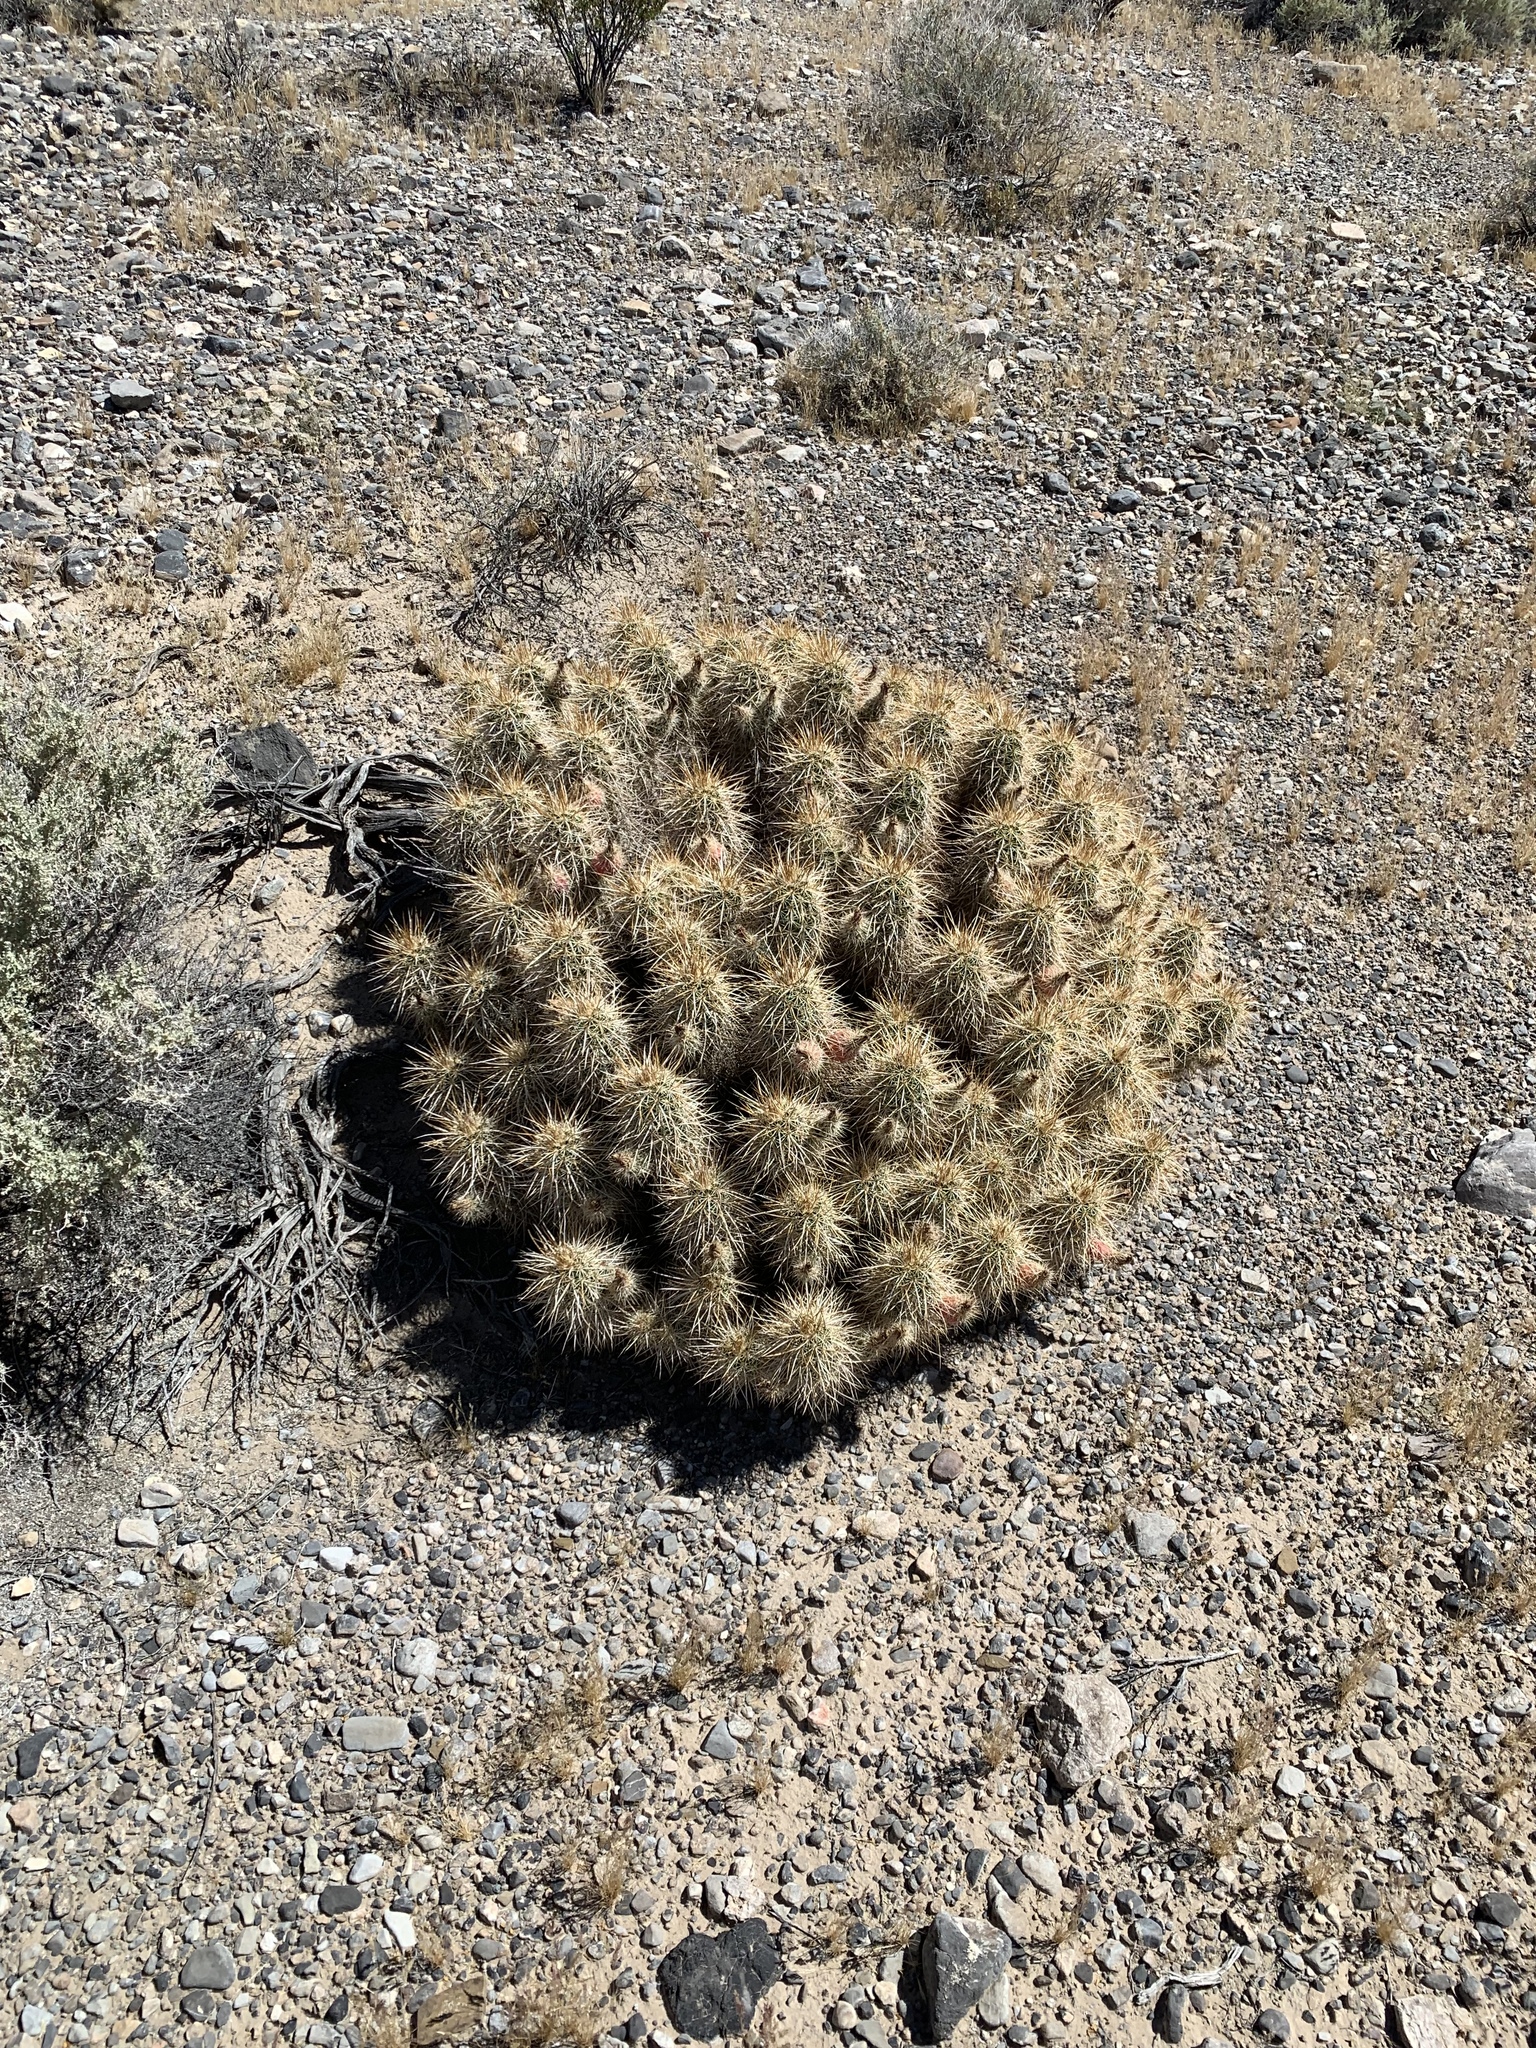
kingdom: Plantae
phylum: Tracheophyta
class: Magnoliopsida
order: Caryophyllales
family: Cactaceae
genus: Echinocereus
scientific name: Echinocereus engelmannii
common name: Engelmann's hedgehog cactus
